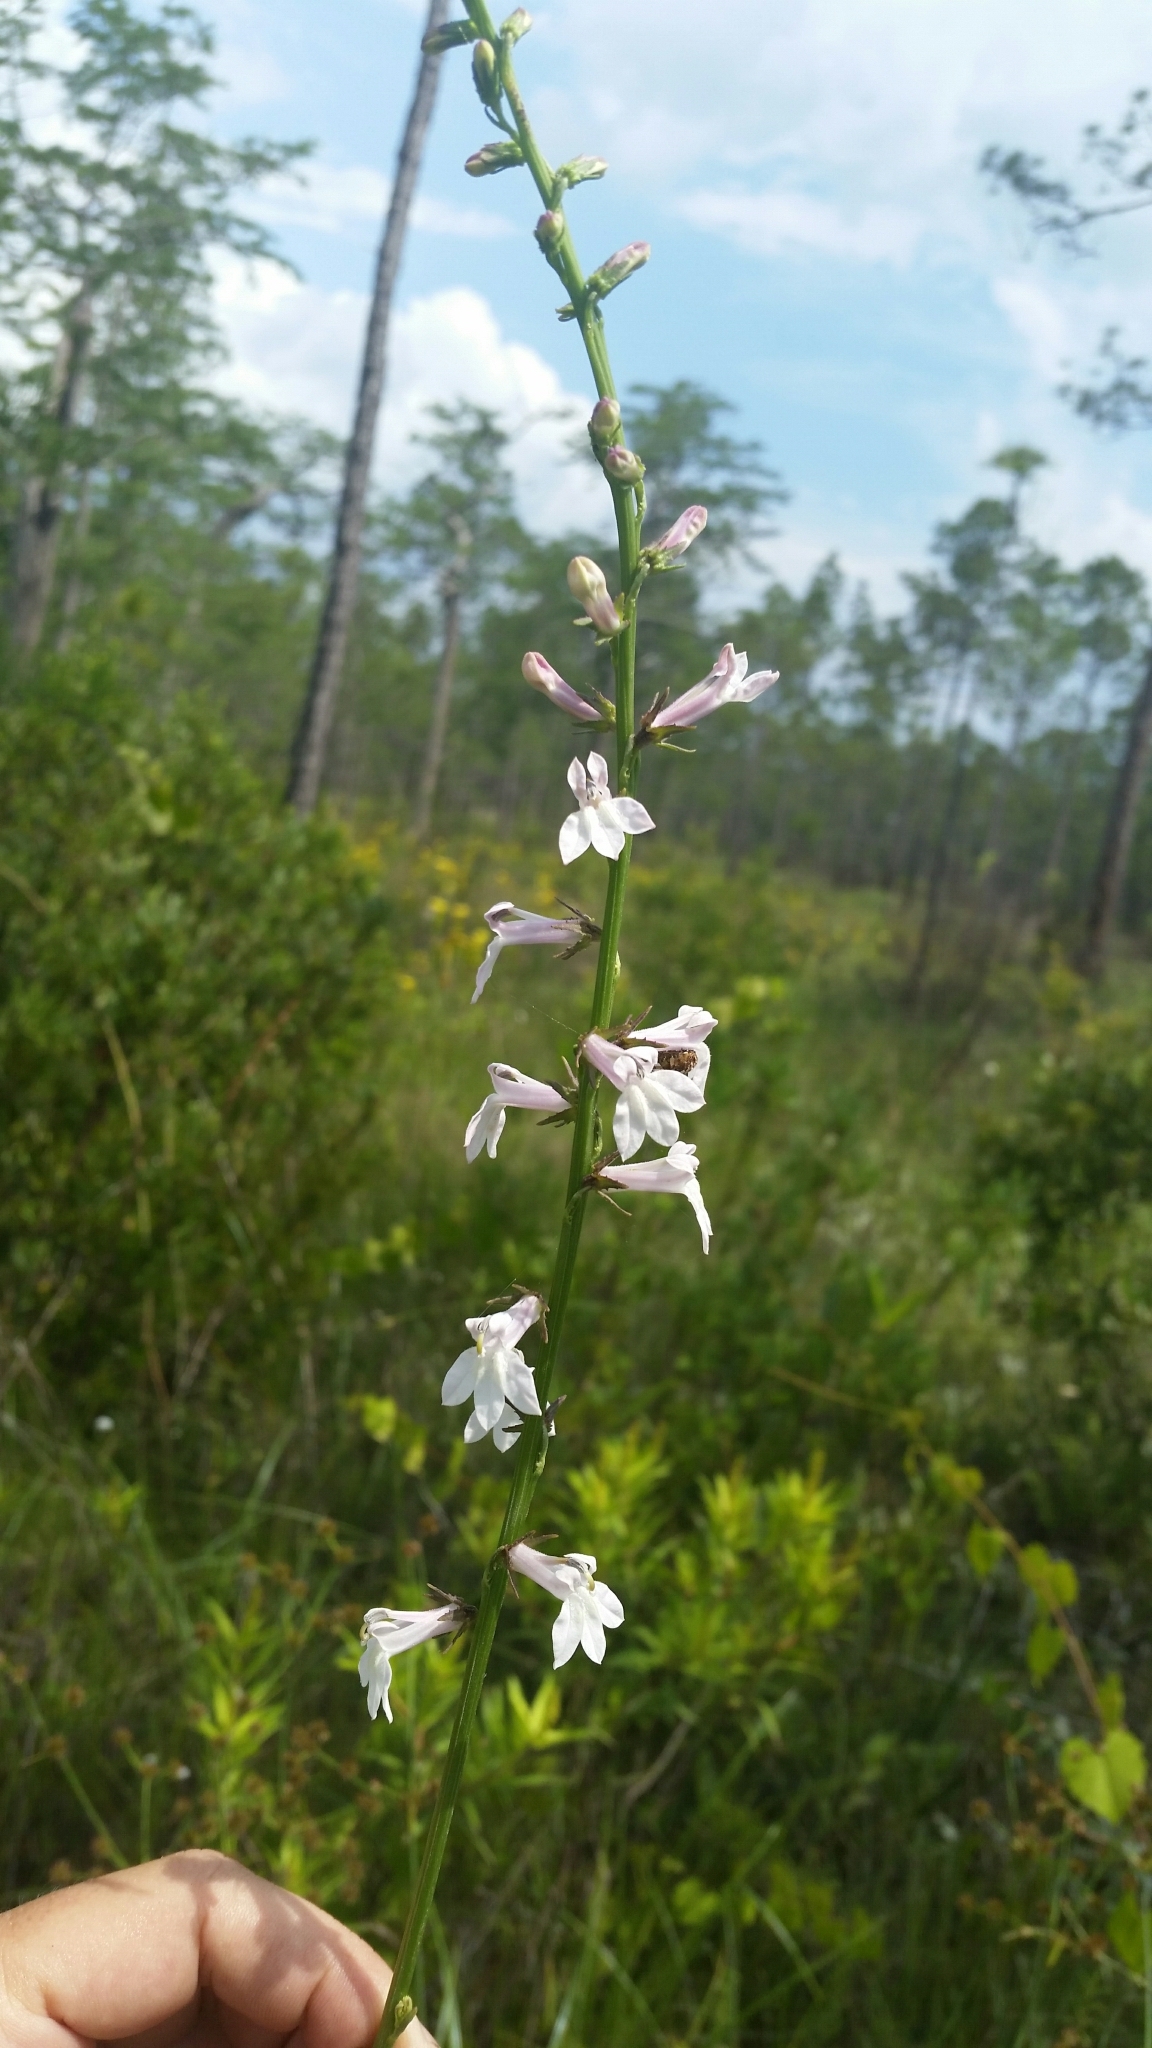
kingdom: Plantae
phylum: Tracheophyta
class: Magnoliopsida
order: Asterales
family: Campanulaceae
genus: Lobelia
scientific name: Lobelia floridana
